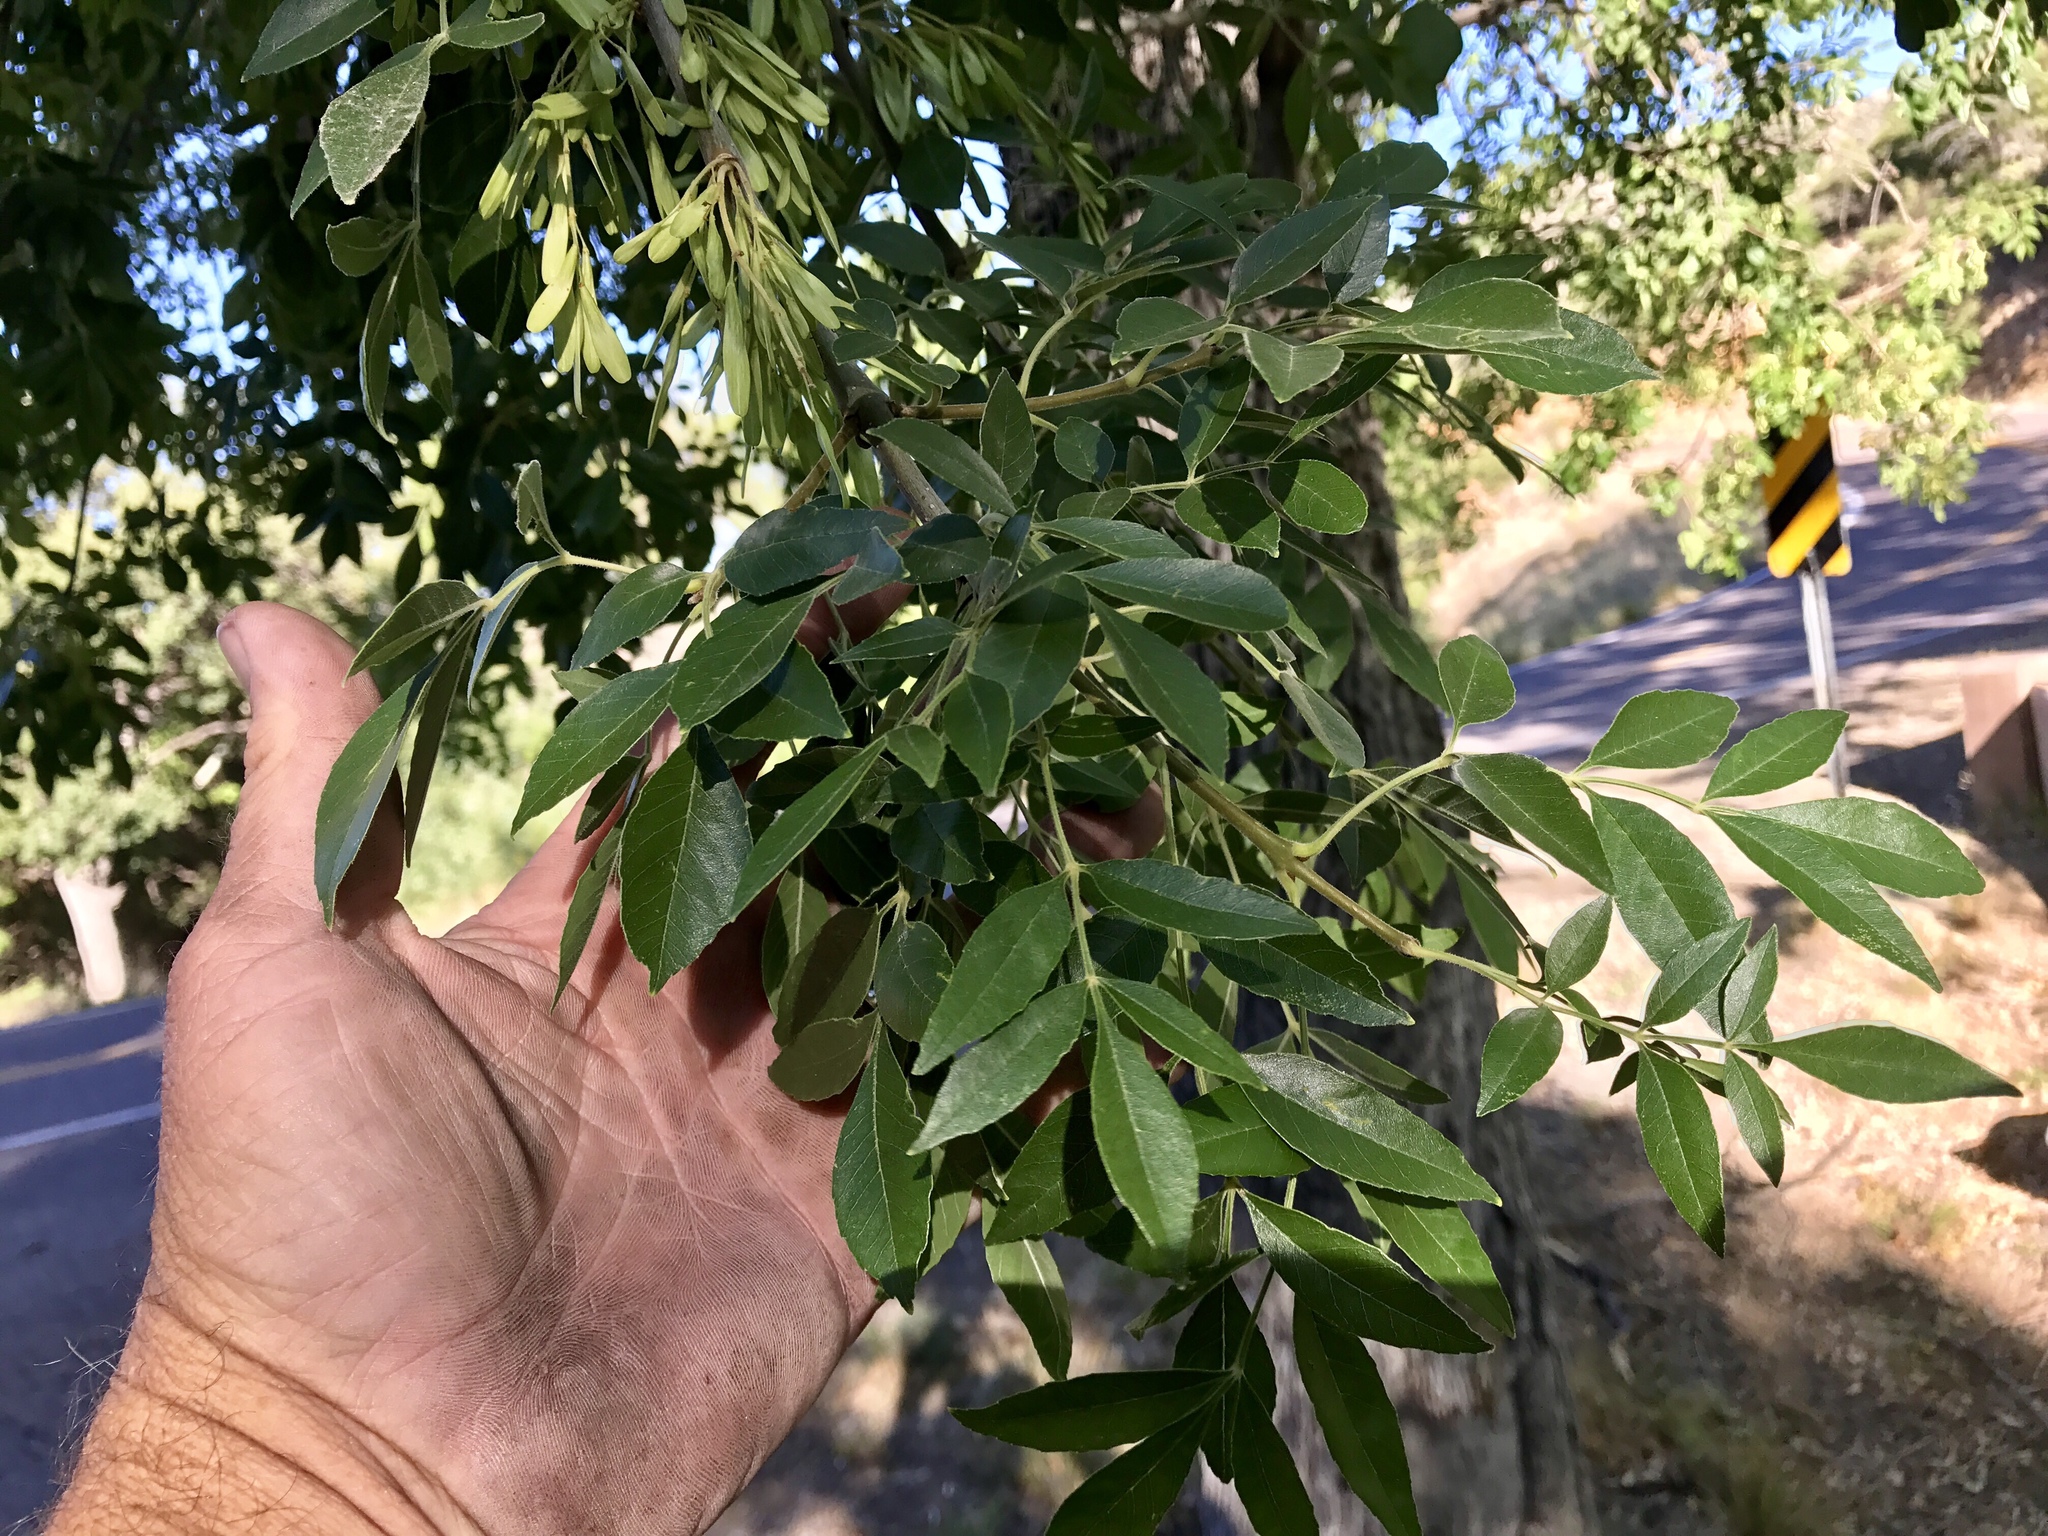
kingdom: Plantae
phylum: Tracheophyta
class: Magnoliopsida
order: Lamiales
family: Oleaceae
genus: Fraxinus
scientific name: Fraxinus velutina
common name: Arizon ash
